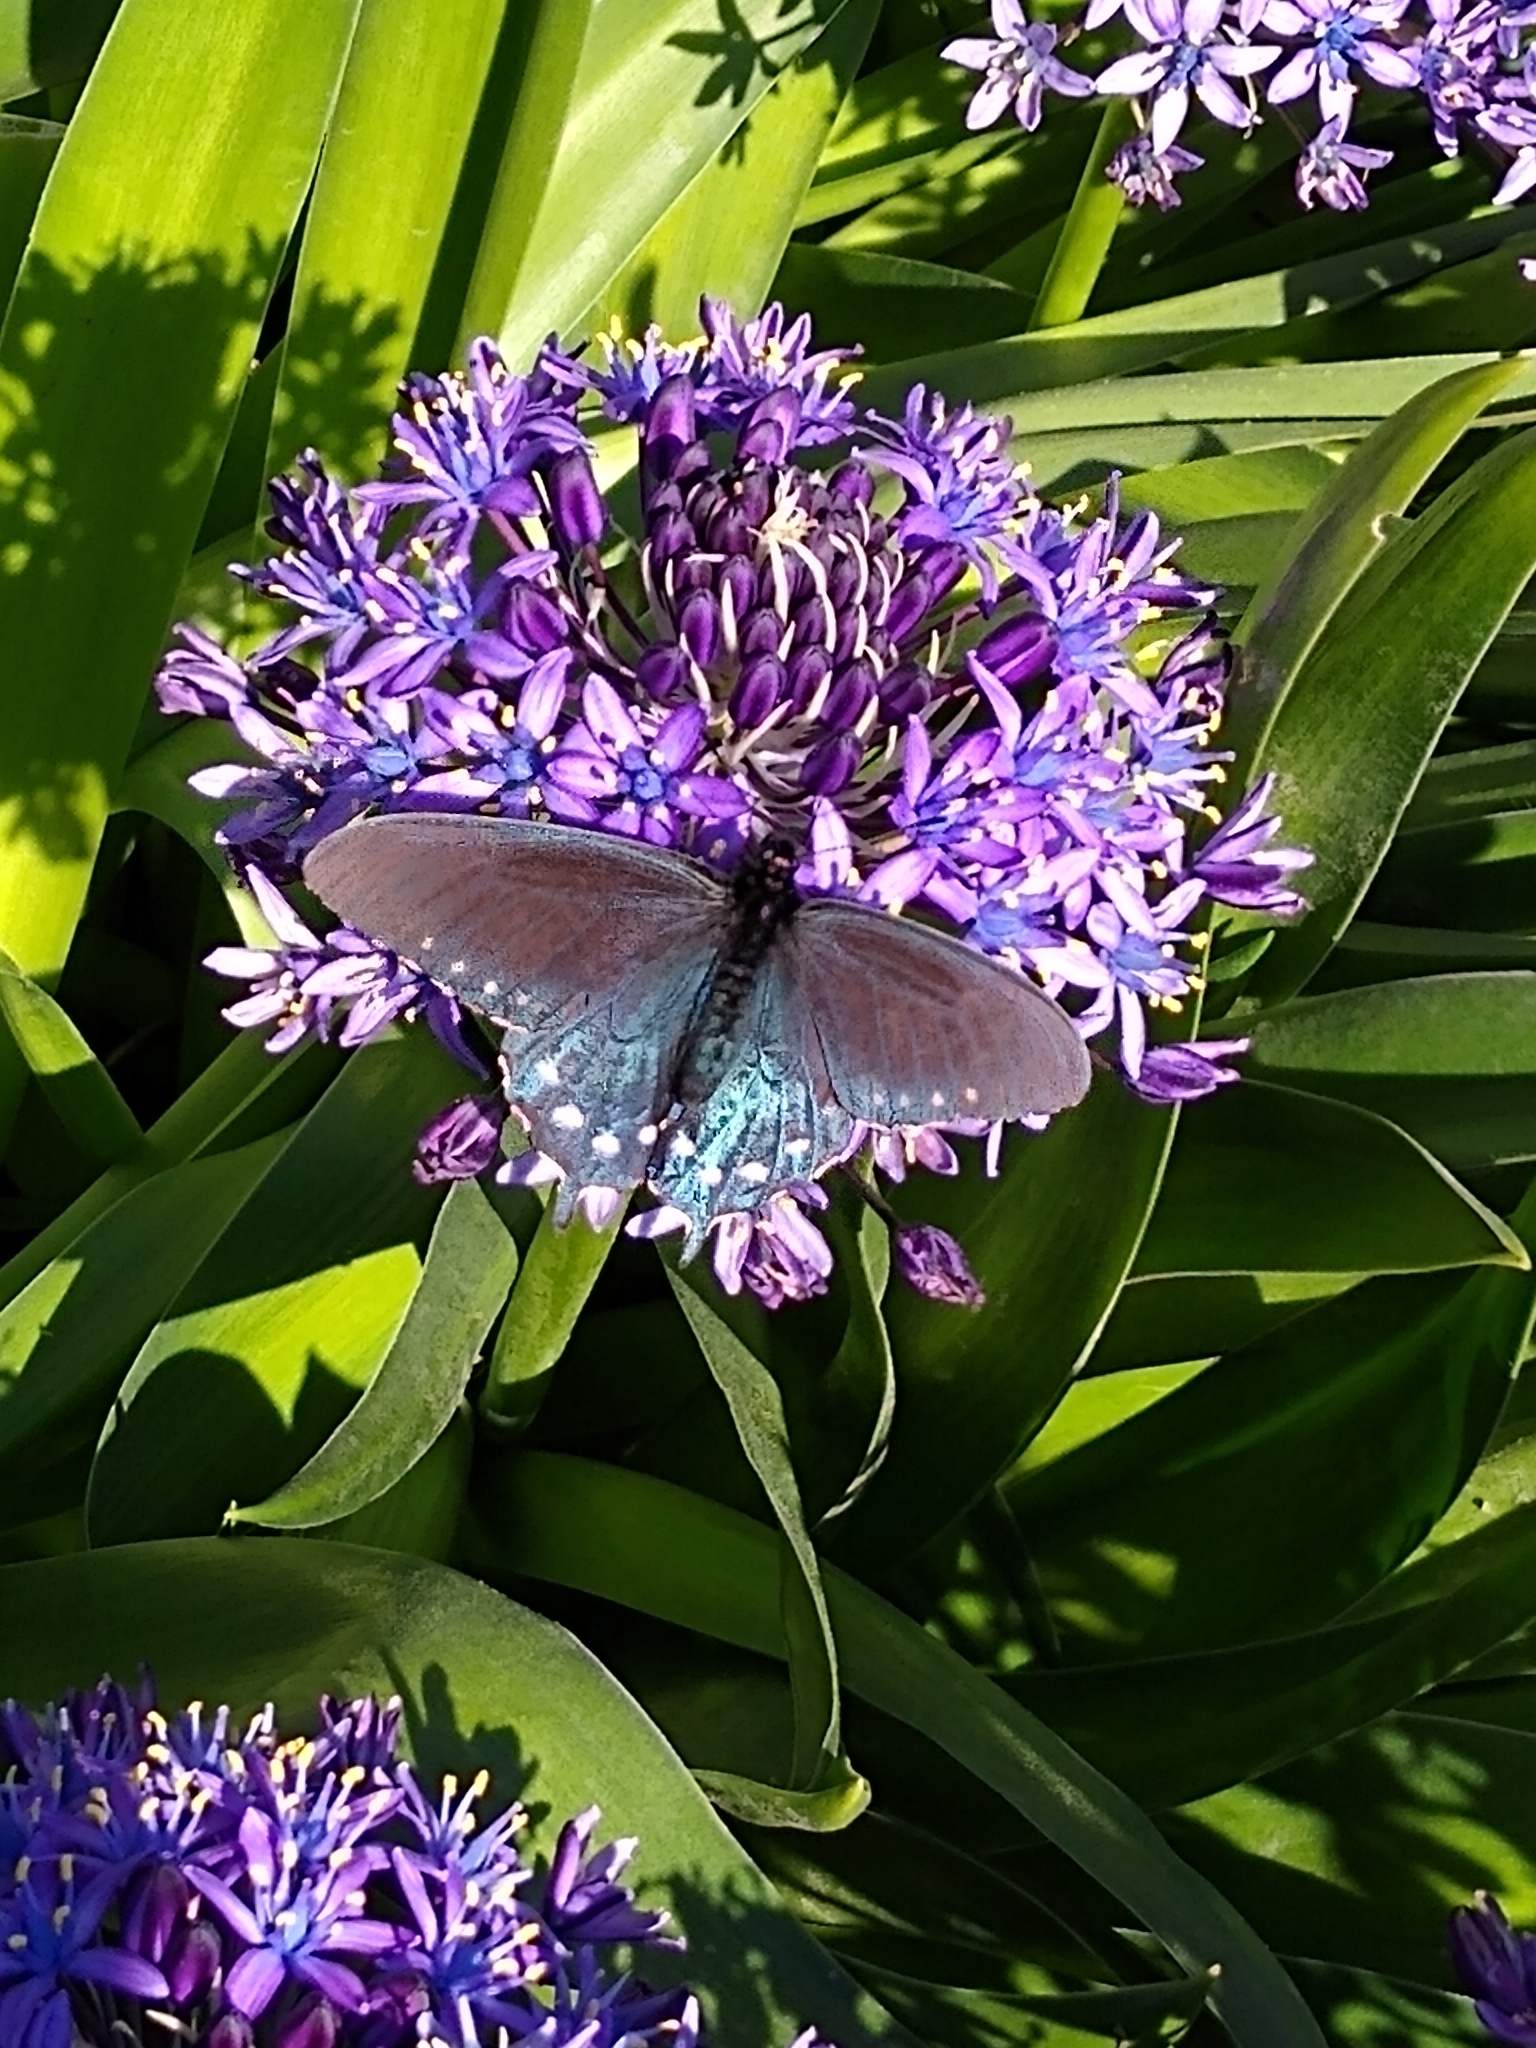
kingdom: Animalia
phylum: Arthropoda
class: Insecta
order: Lepidoptera
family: Papilionidae
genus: Battus
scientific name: Battus philenor
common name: Pipevine swallowtail
